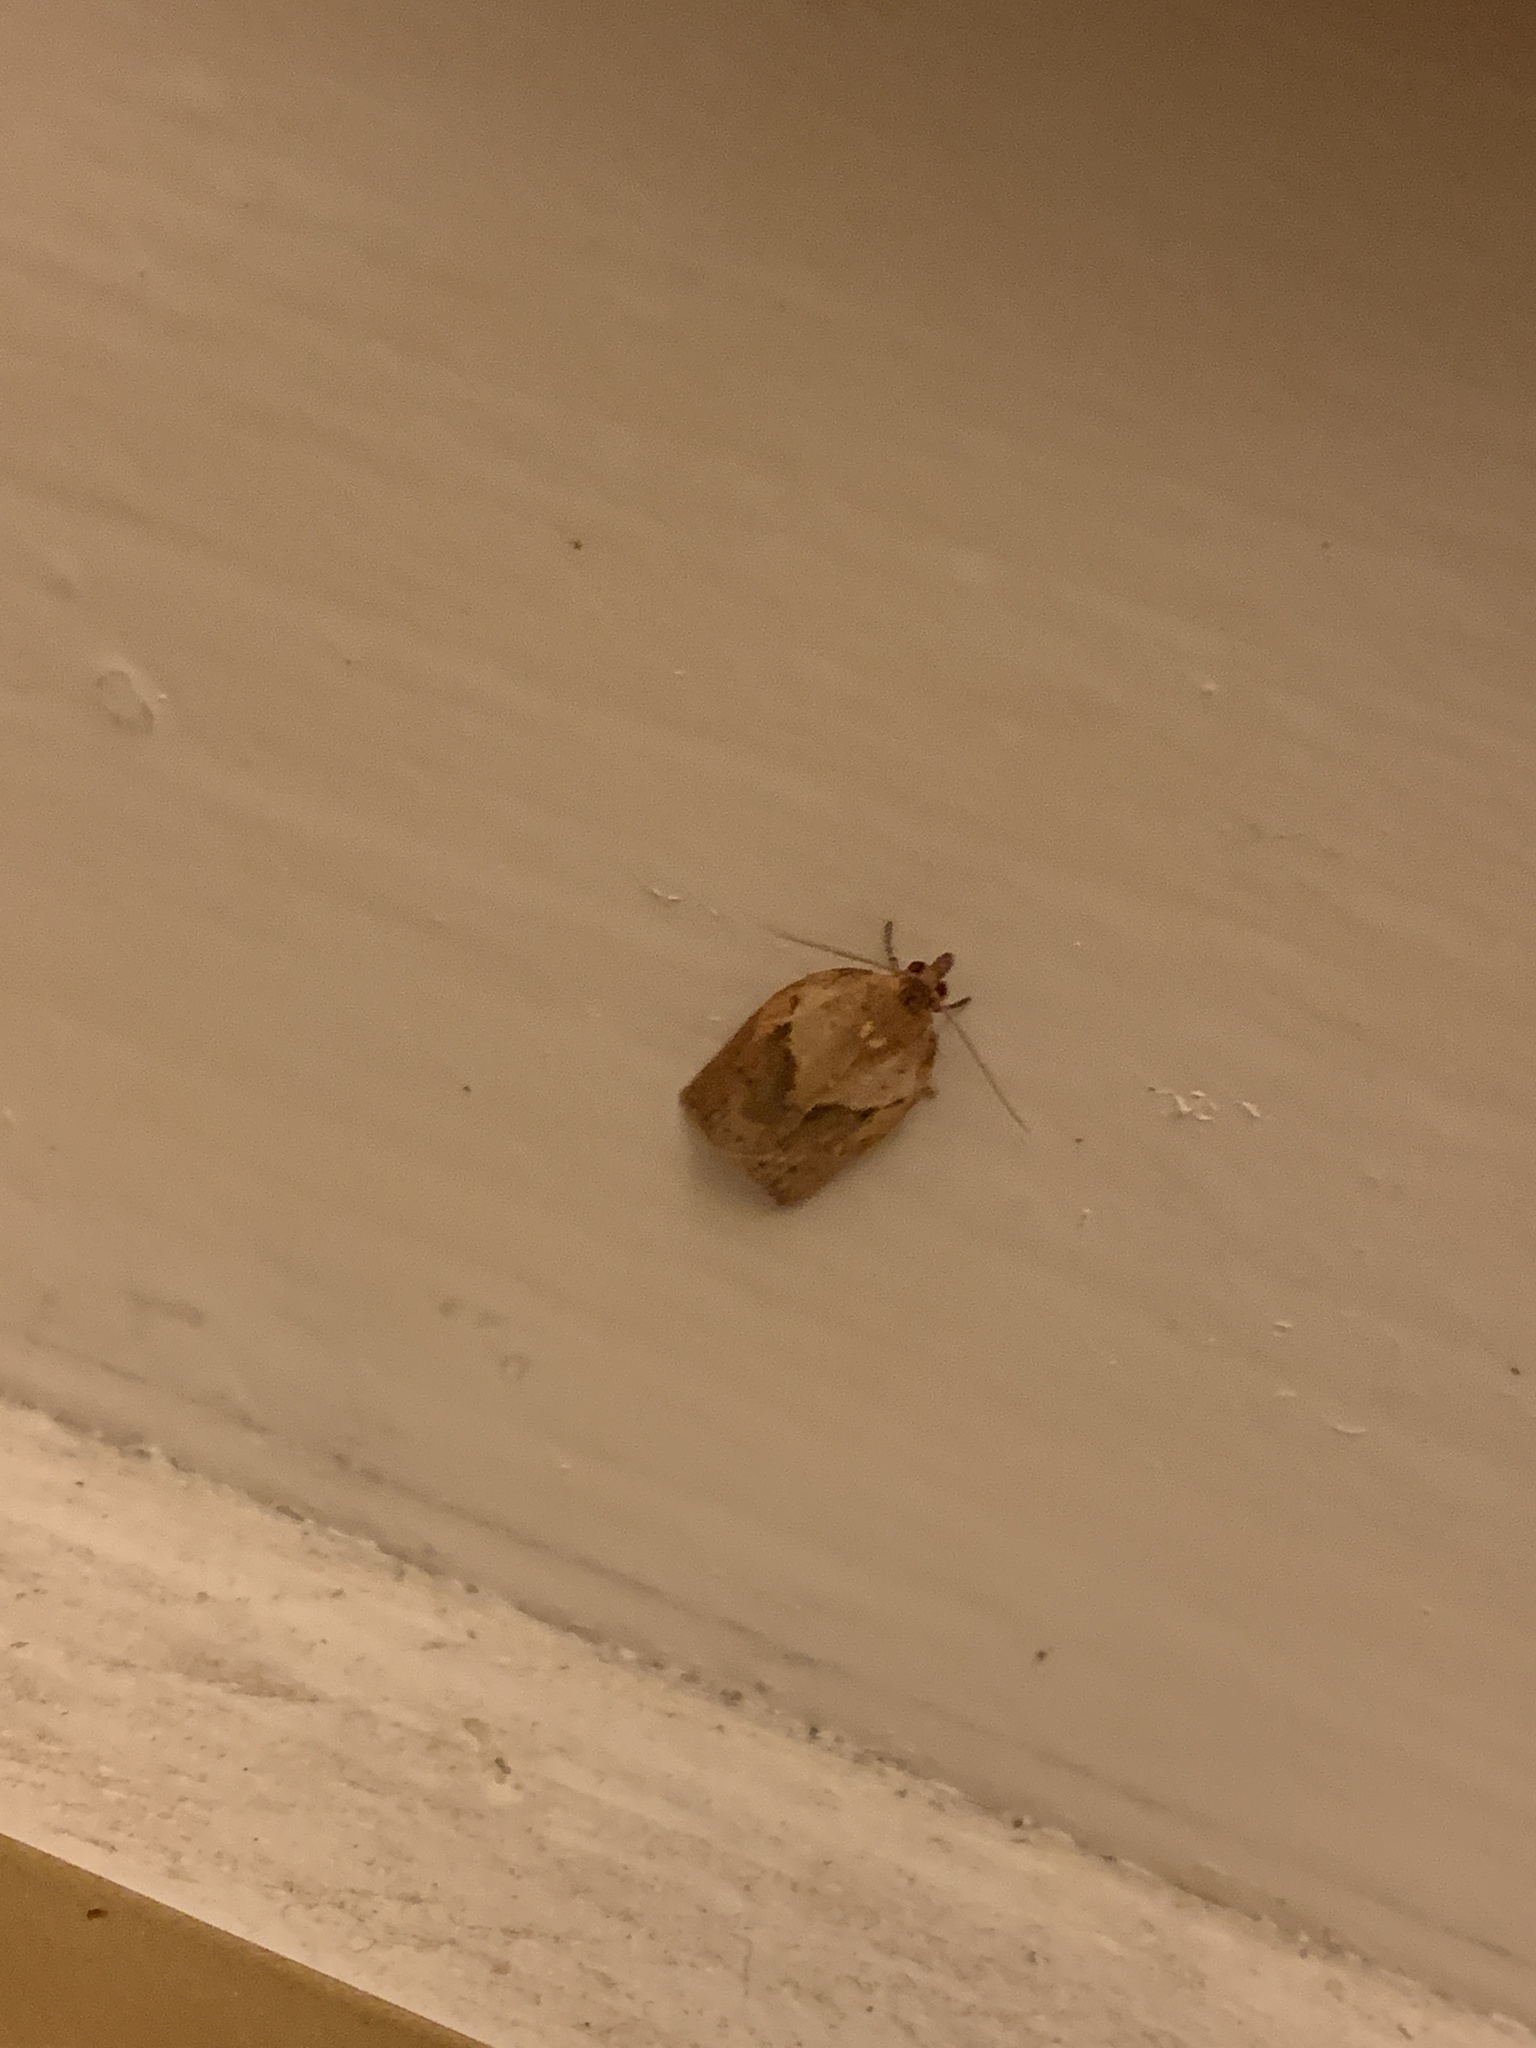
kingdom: Animalia
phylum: Arthropoda
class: Insecta
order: Lepidoptera
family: Tortricidae
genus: Epiphyas
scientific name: Epiphyas postvittana
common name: Light brown apple moth
